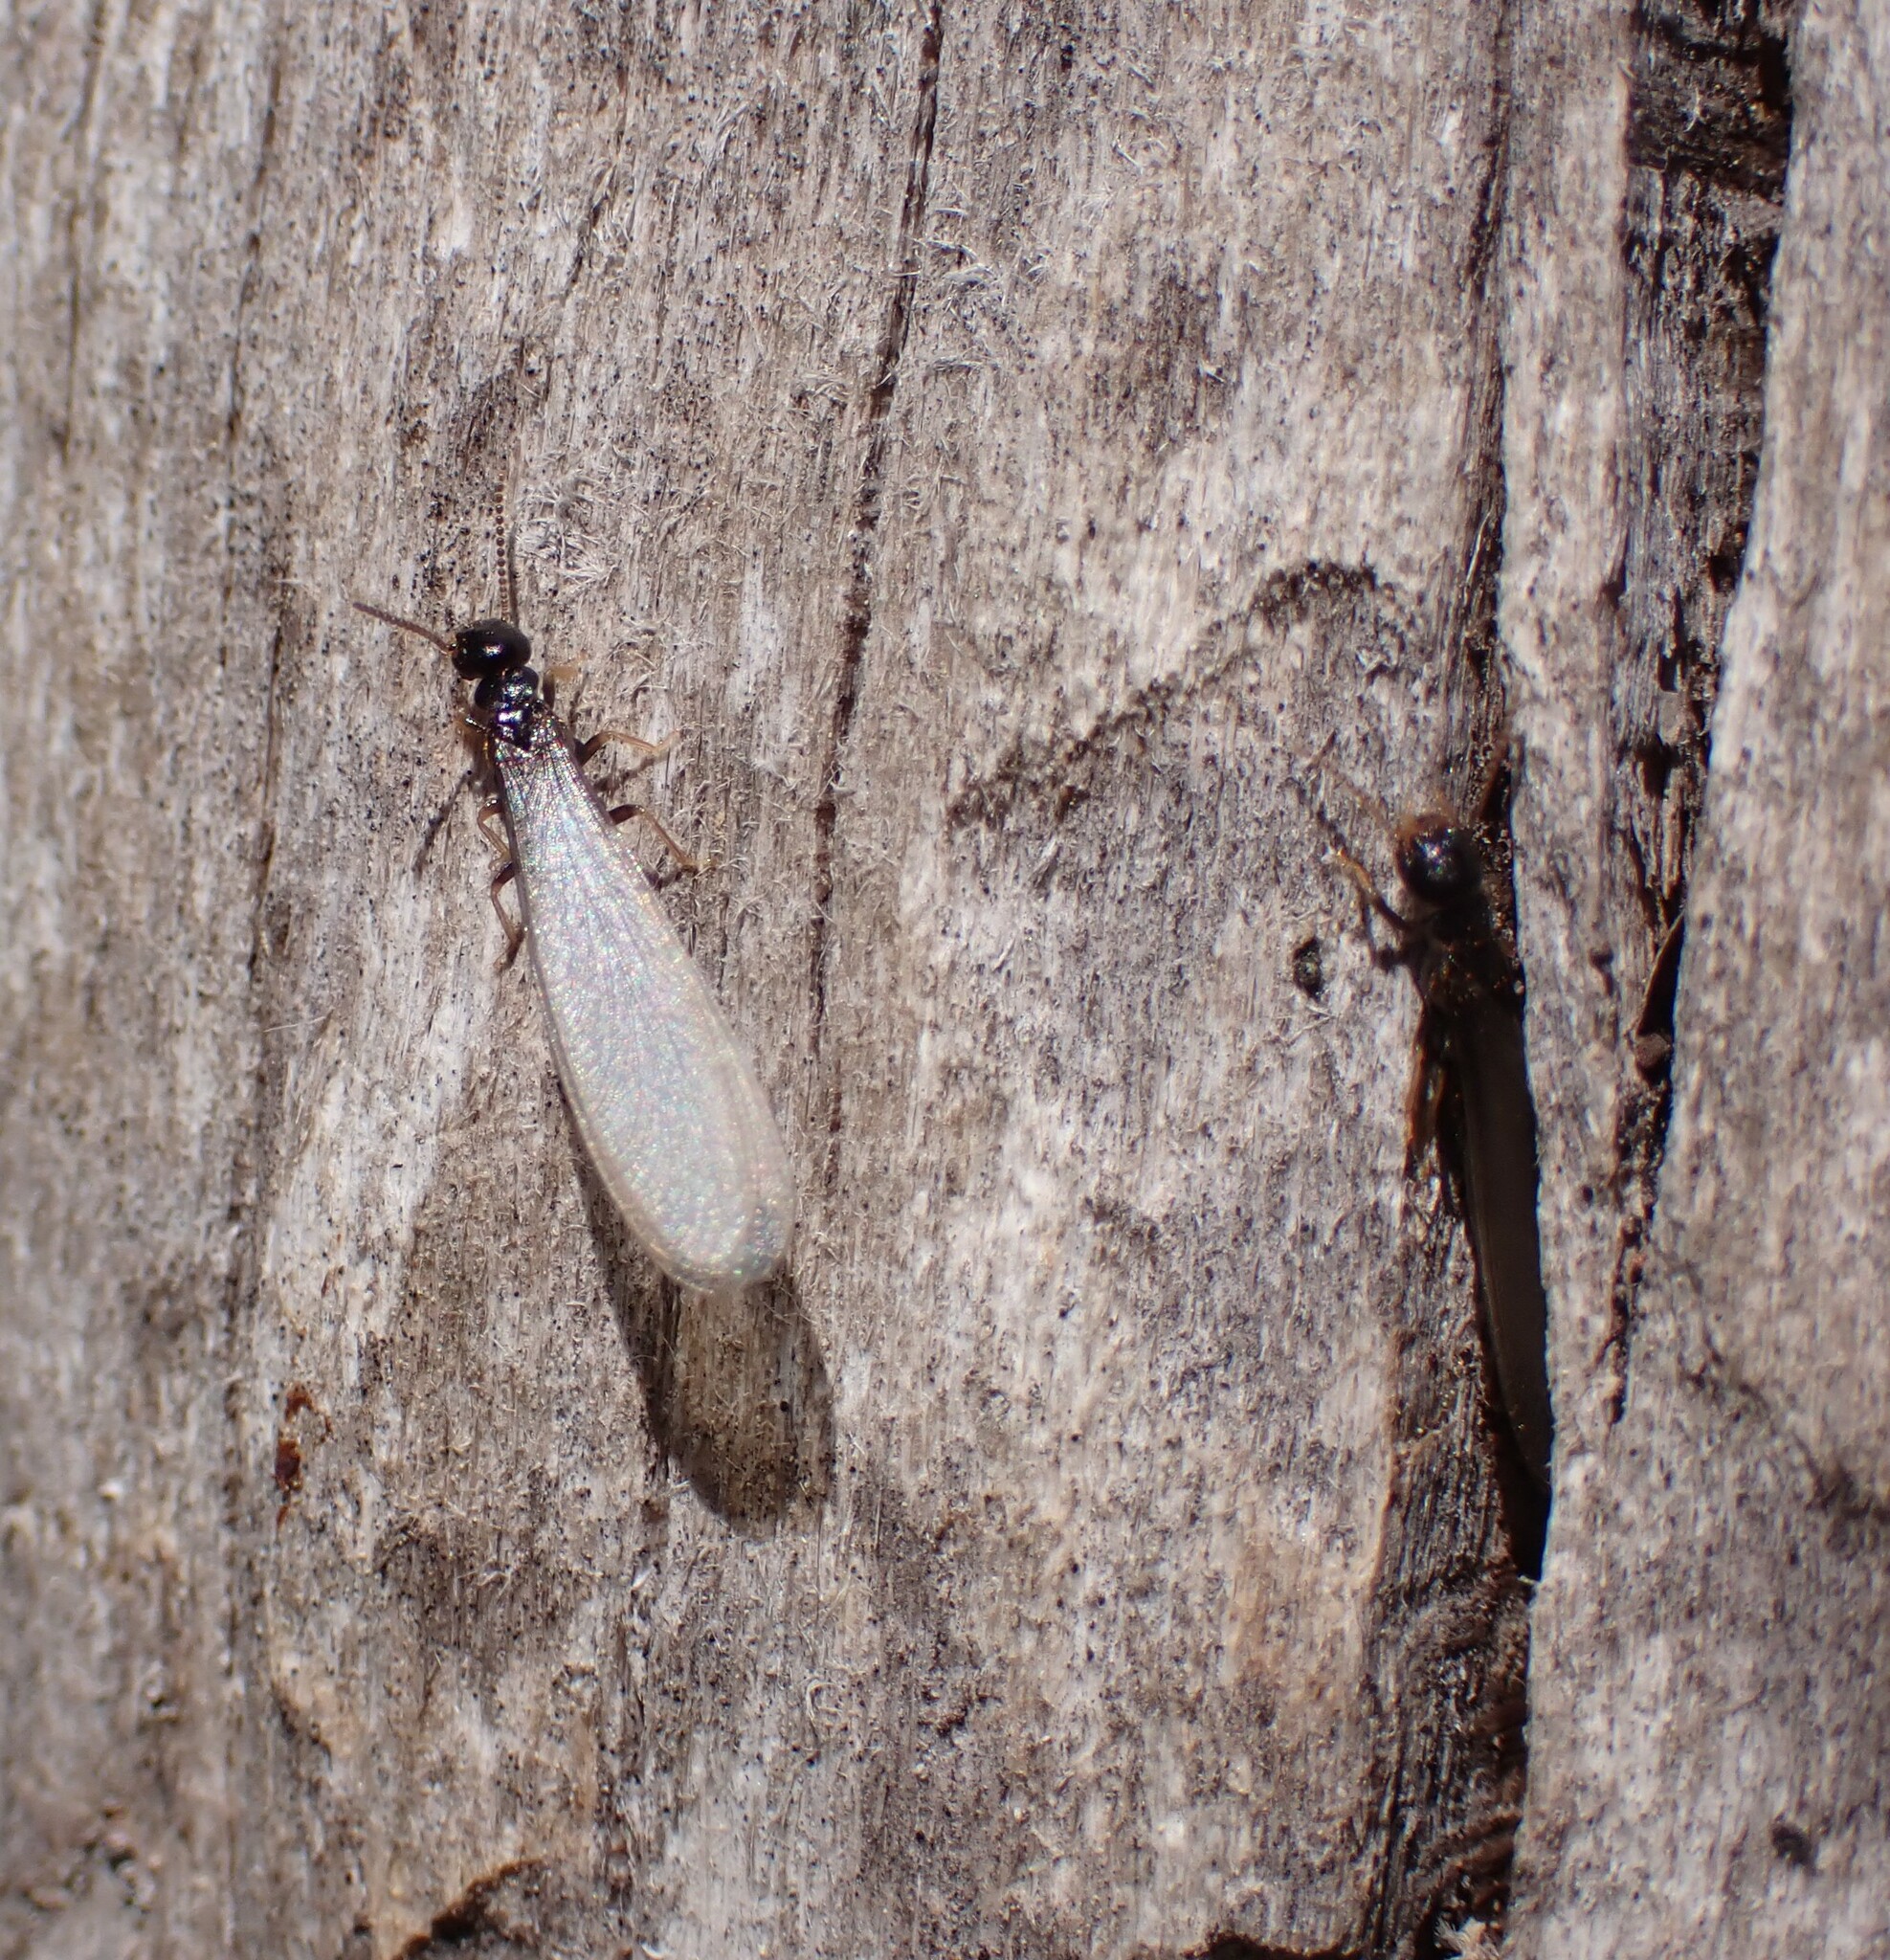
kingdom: Animalia
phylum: Arthropoda
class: Insecta
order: Blattodea
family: Rhinotermitidae
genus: Reticulitermes
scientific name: Reticulitermes flavipes
